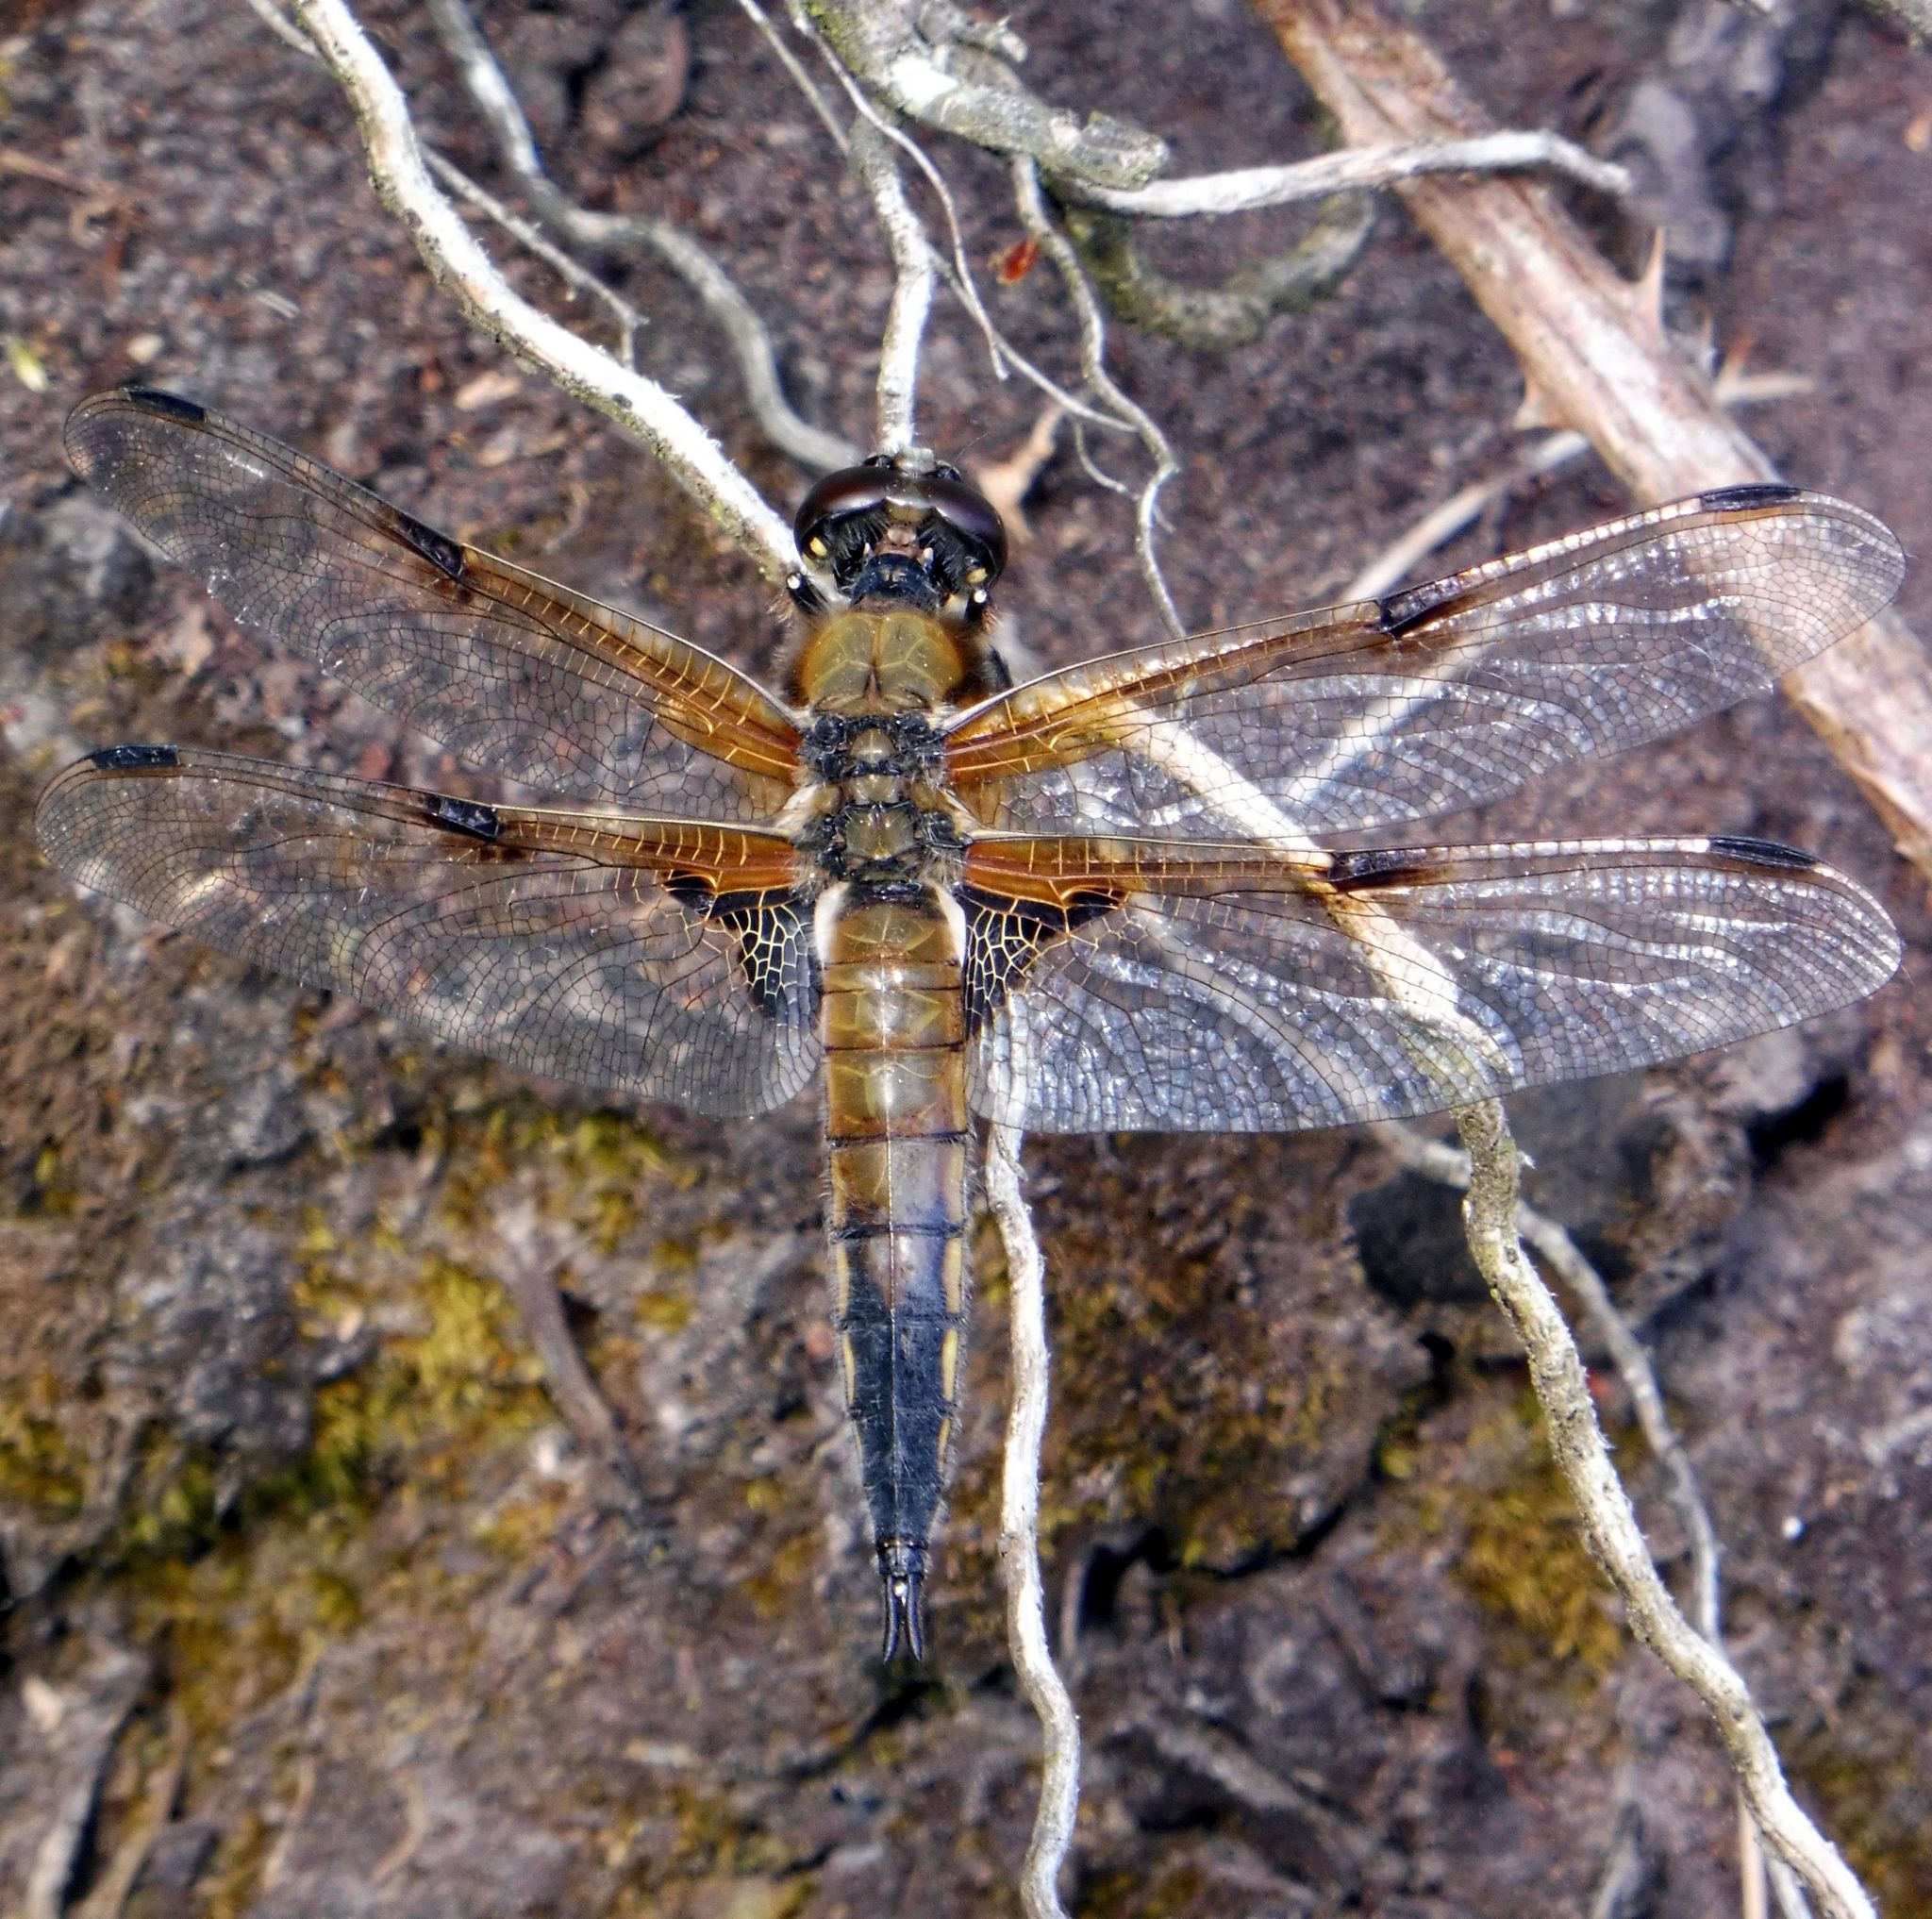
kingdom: Animalia
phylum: Arthropoda
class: Insecta
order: Odonata
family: Libellulidae
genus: Libellula
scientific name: Libellula quadrimaculata
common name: Four-spotted chaser
